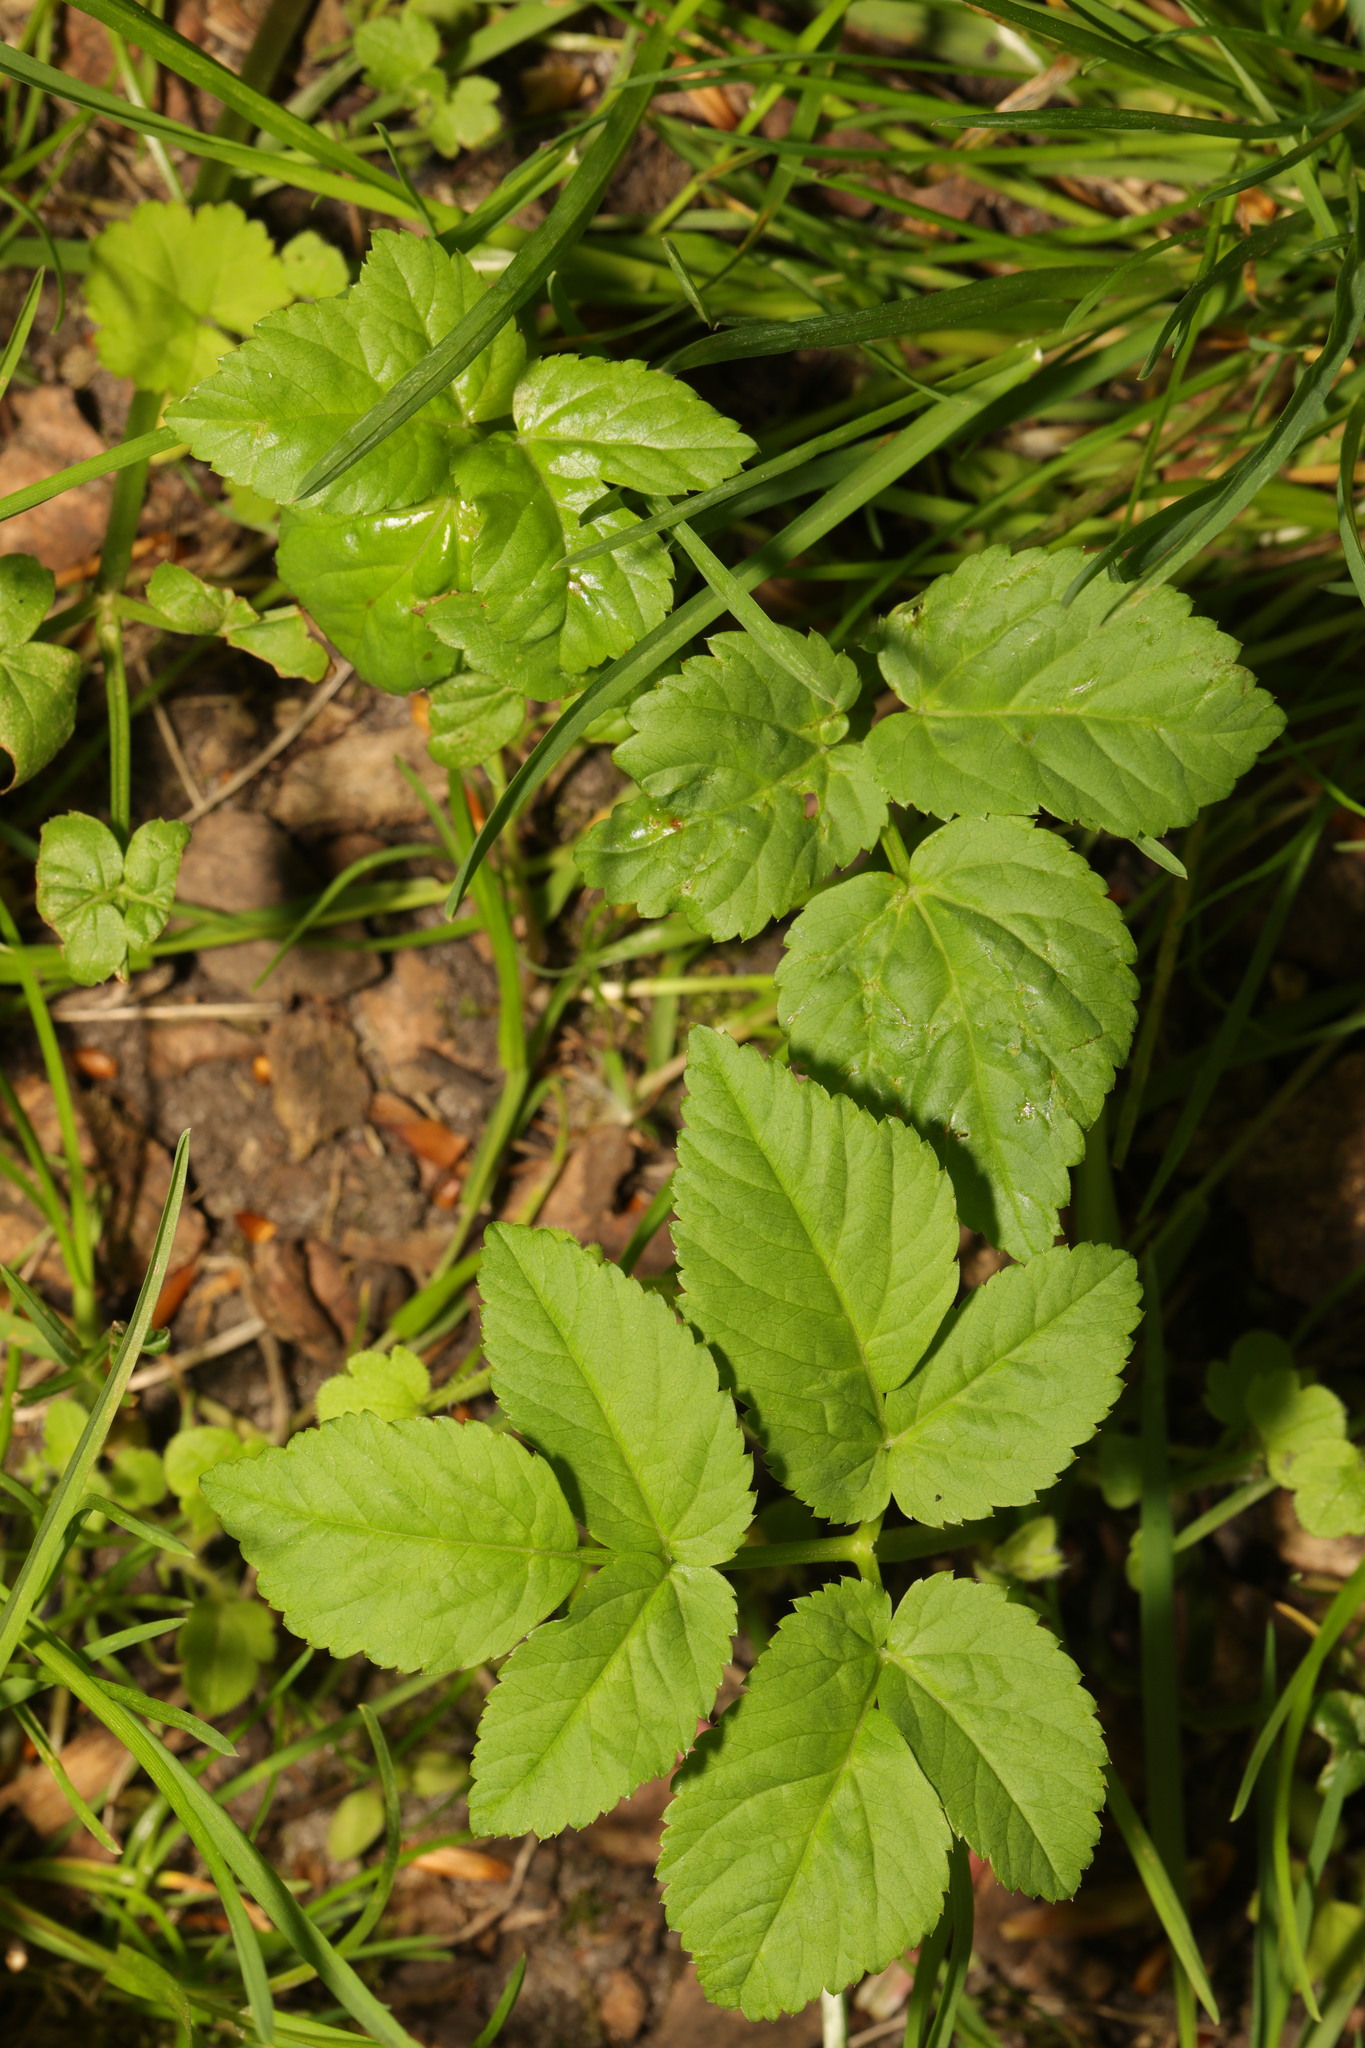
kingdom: Plantae
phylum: Tracheophyta
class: Magnoliopsida
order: Apiales
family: Apiaceae
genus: Aegopodium
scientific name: Aegopodium podagraria
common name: Ground-elder
